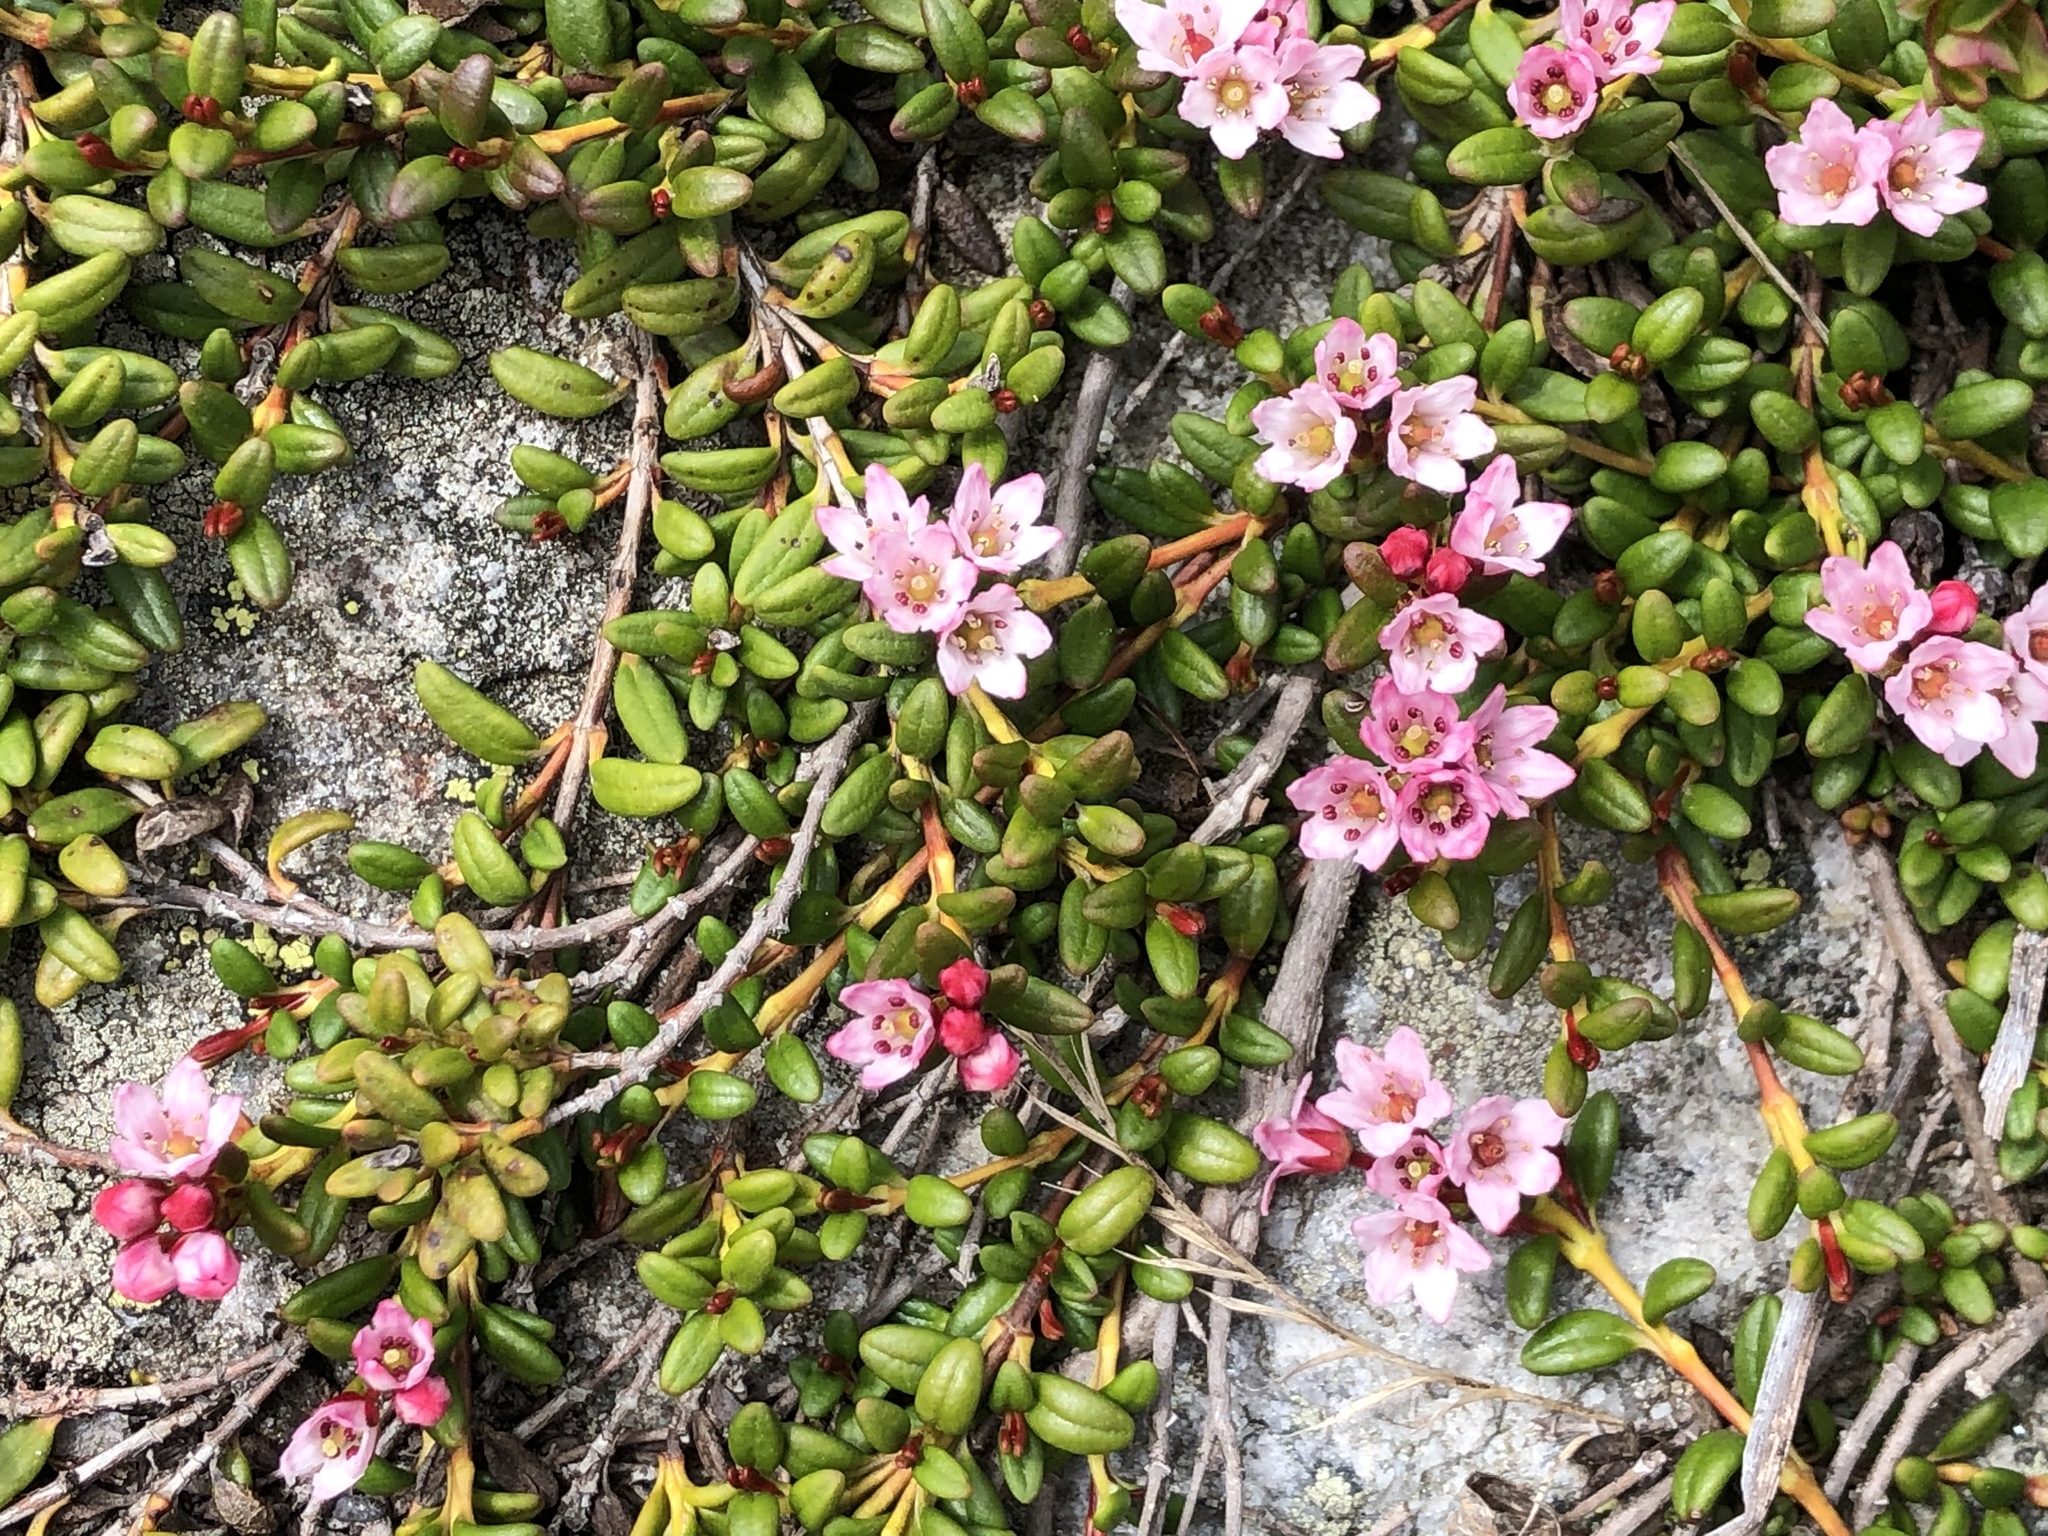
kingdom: Plantae
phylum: Tracheophyta
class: Magnoliopsida
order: Ericales
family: Ericaceae
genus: Kalmia
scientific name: Kalmia procumbens
